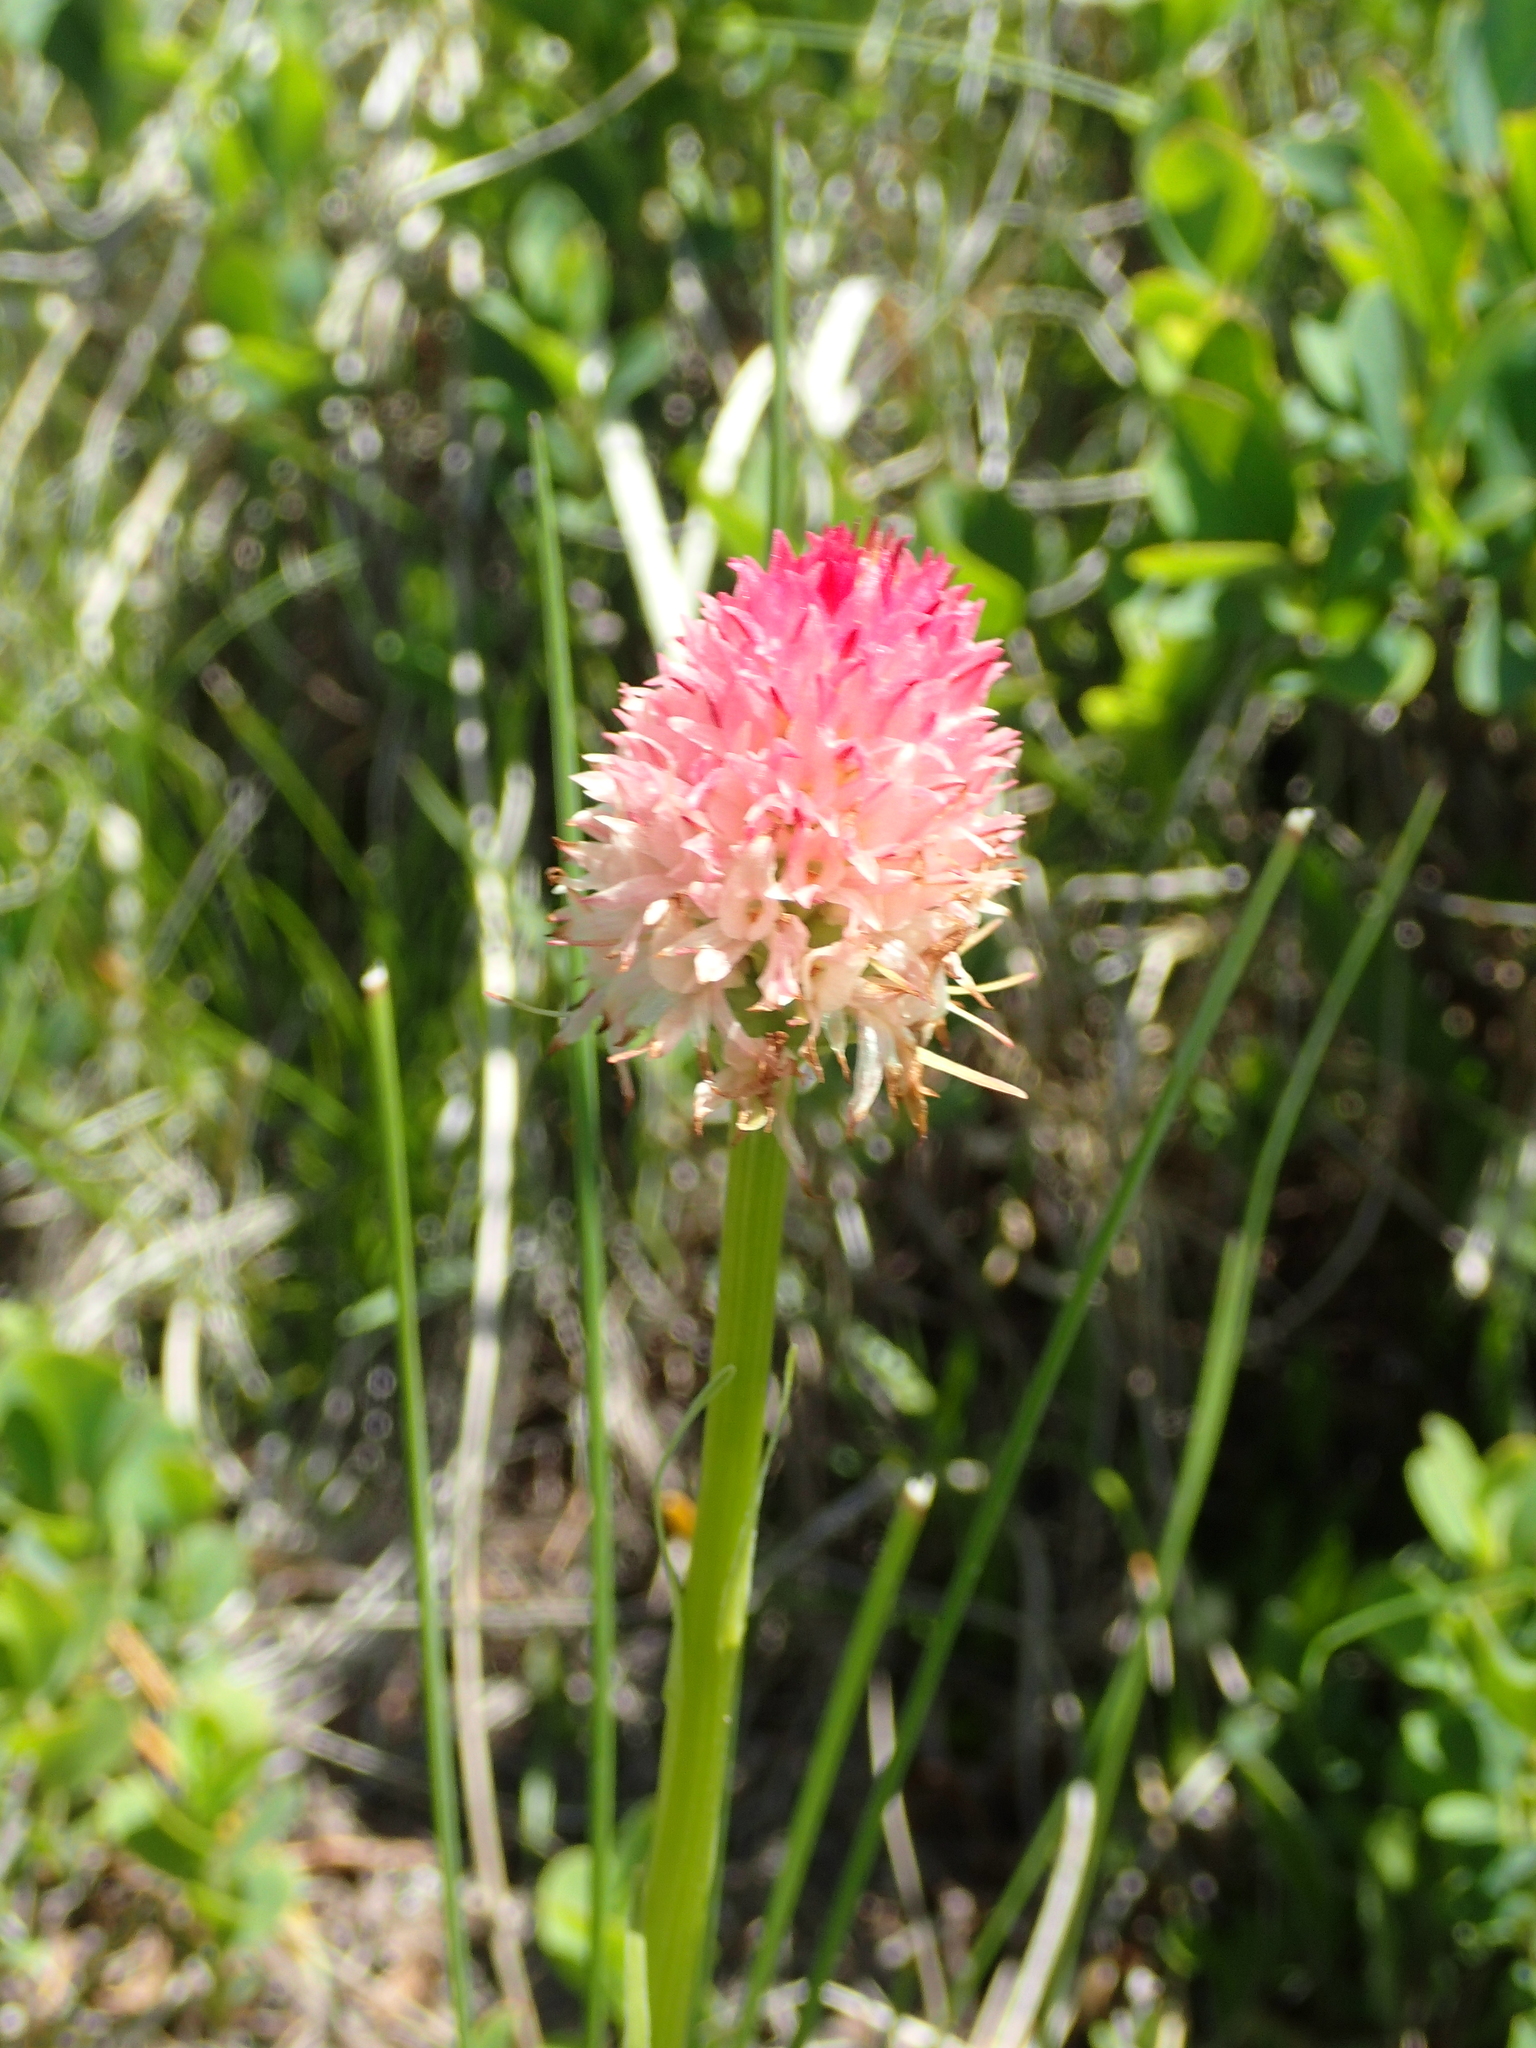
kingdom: Plantae
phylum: Tracheophyta
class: Liliopsida
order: Asparagales
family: Orchidaceae
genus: Gymnadenia
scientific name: Gymnadenia corneliana
